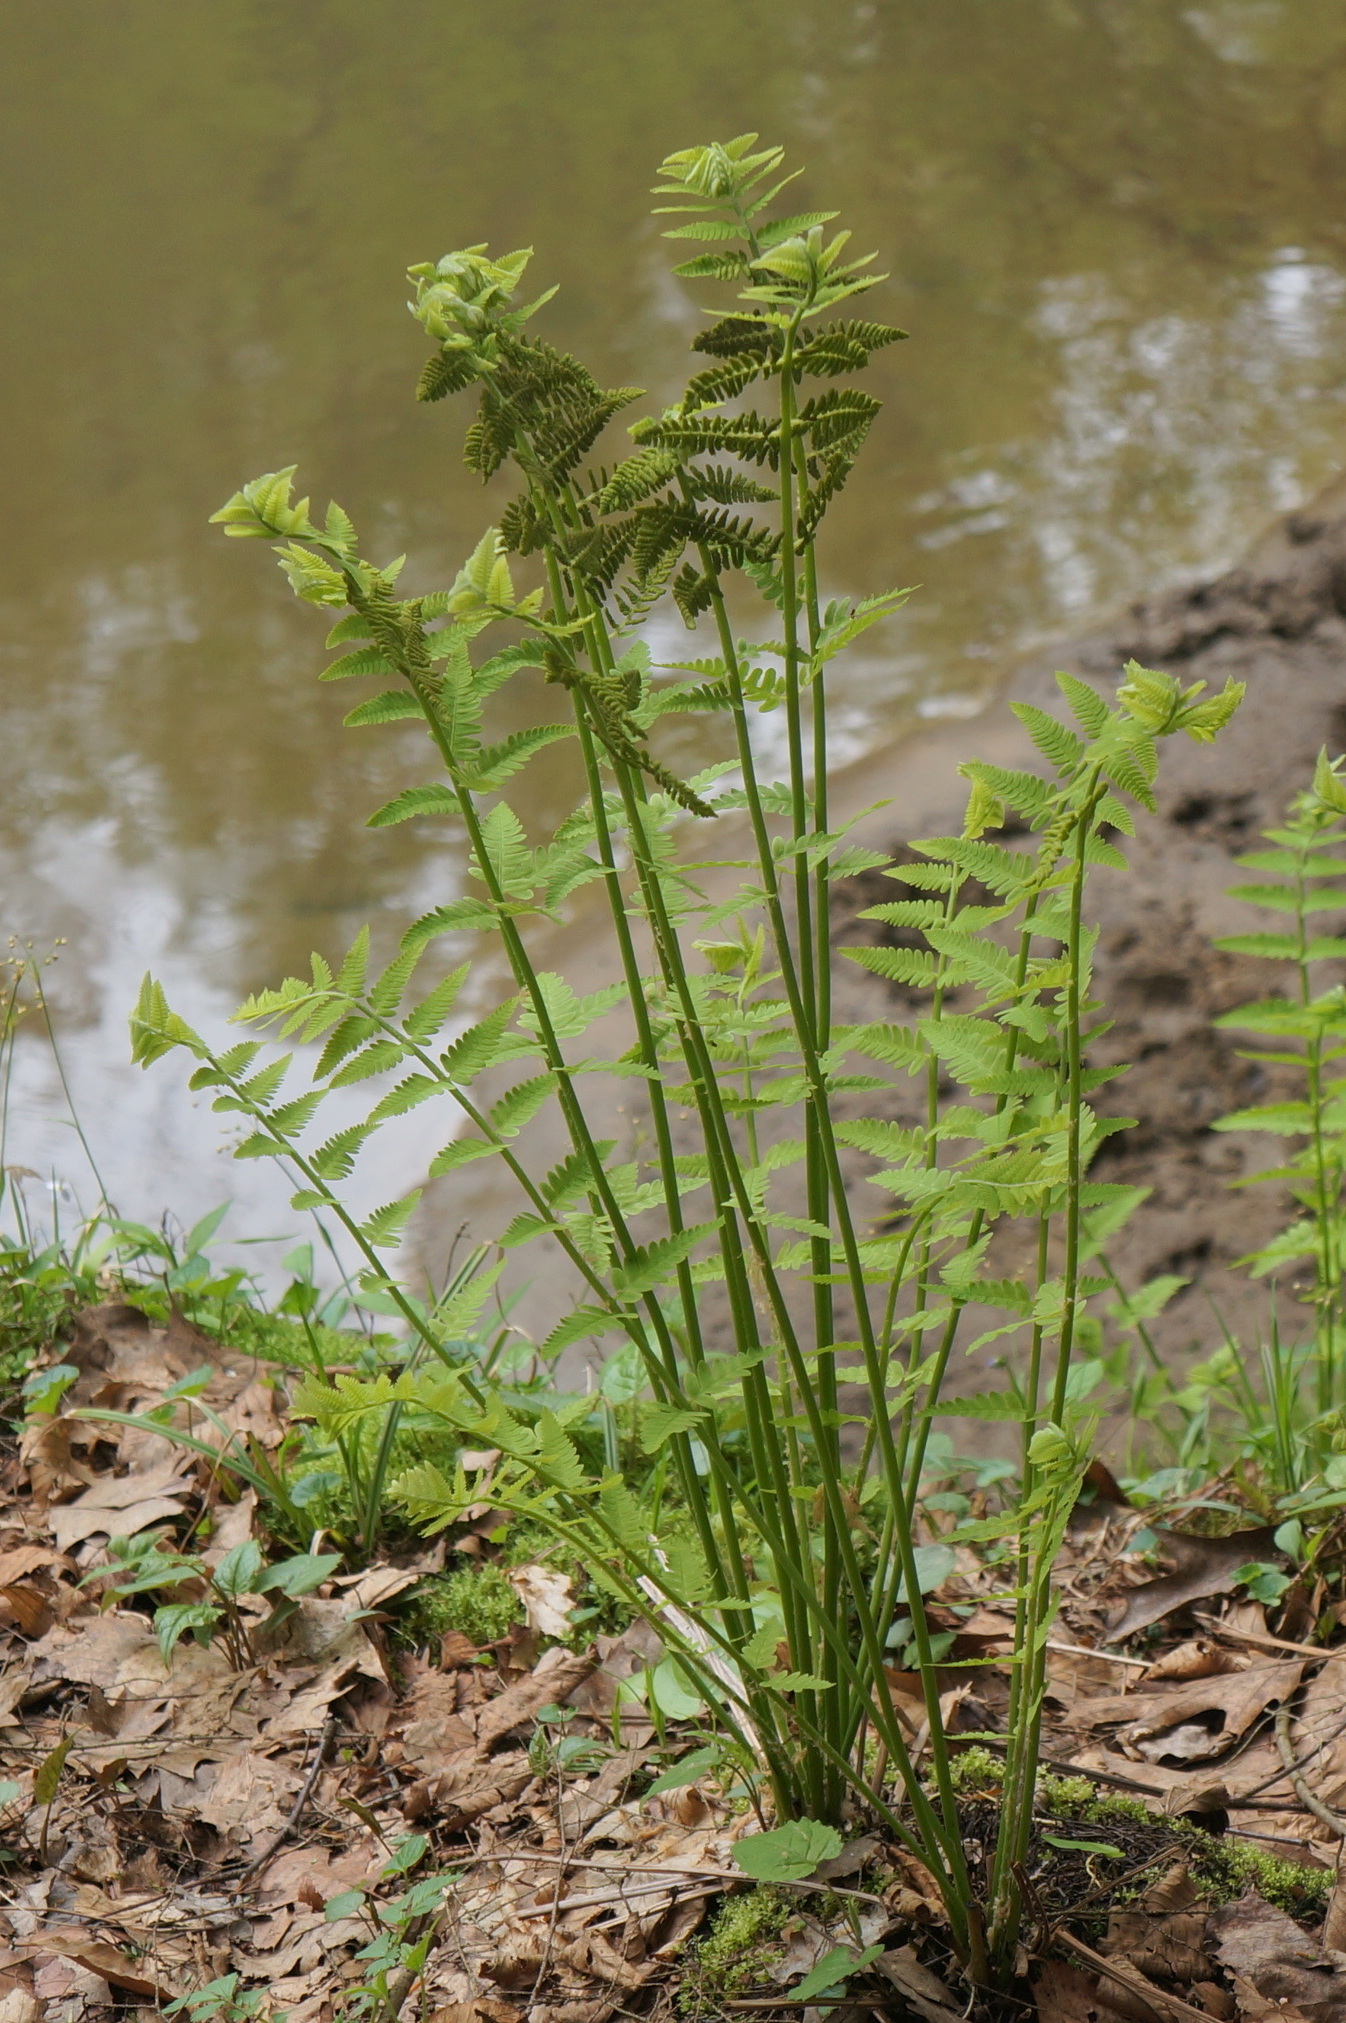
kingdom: Plantae
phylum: Tracheophyta
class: Polypodiopsida
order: Osmundales
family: Osmundaceae
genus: Claytosmunda
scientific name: Claytosmunda claytoniana
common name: Clayton's fern
